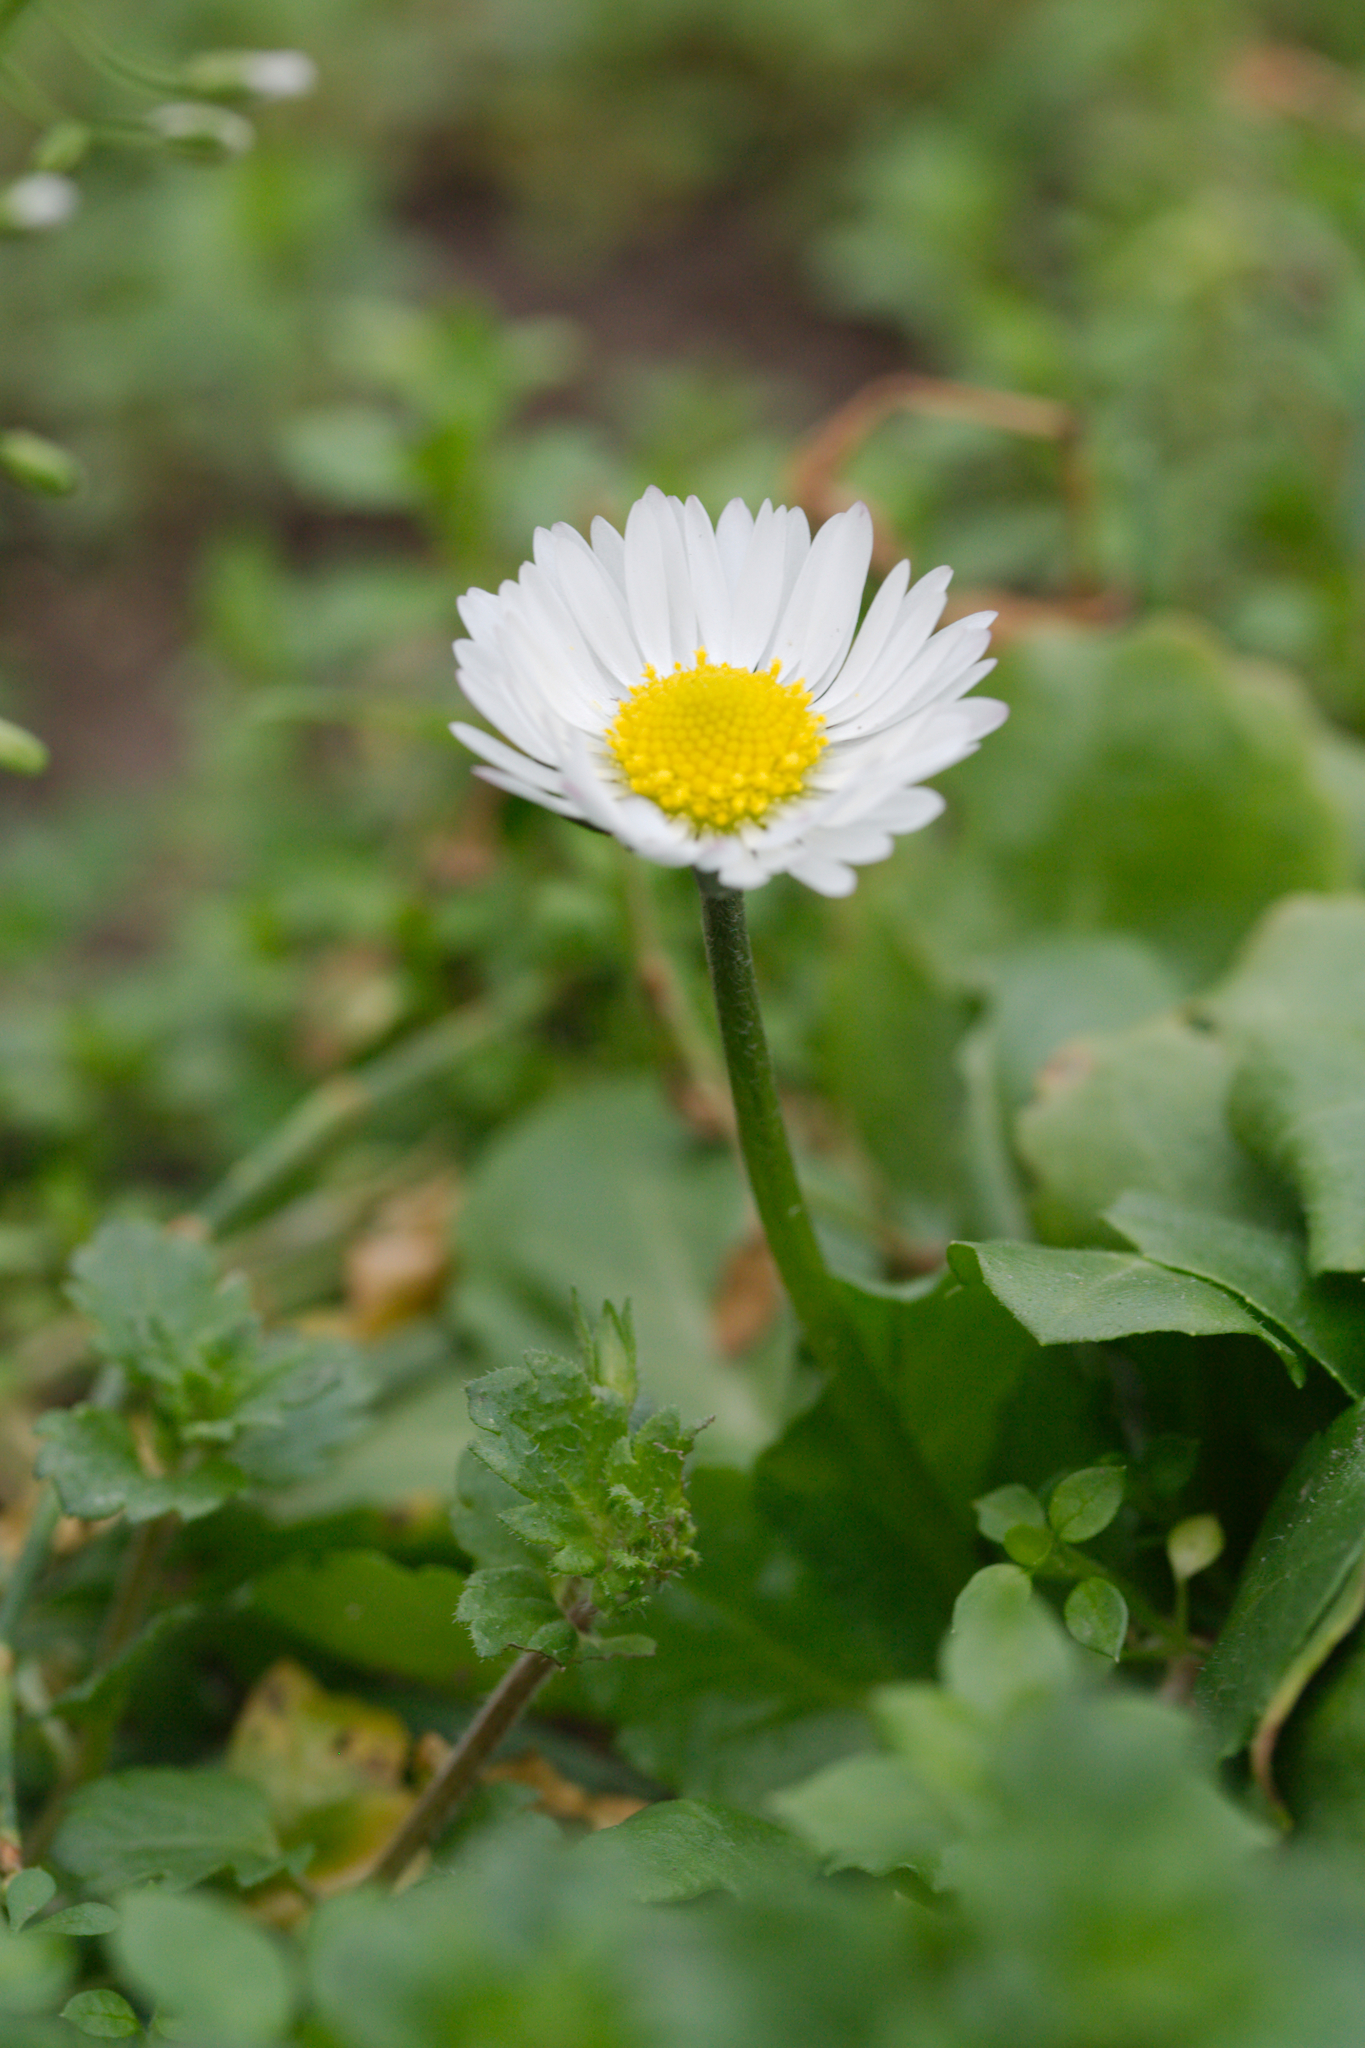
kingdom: Plantae
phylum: Tracheophyta
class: Magnoliopsida
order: Asterales
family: Asteraceae
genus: Bellis
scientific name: Bellis perennis
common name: Lawndaisy
